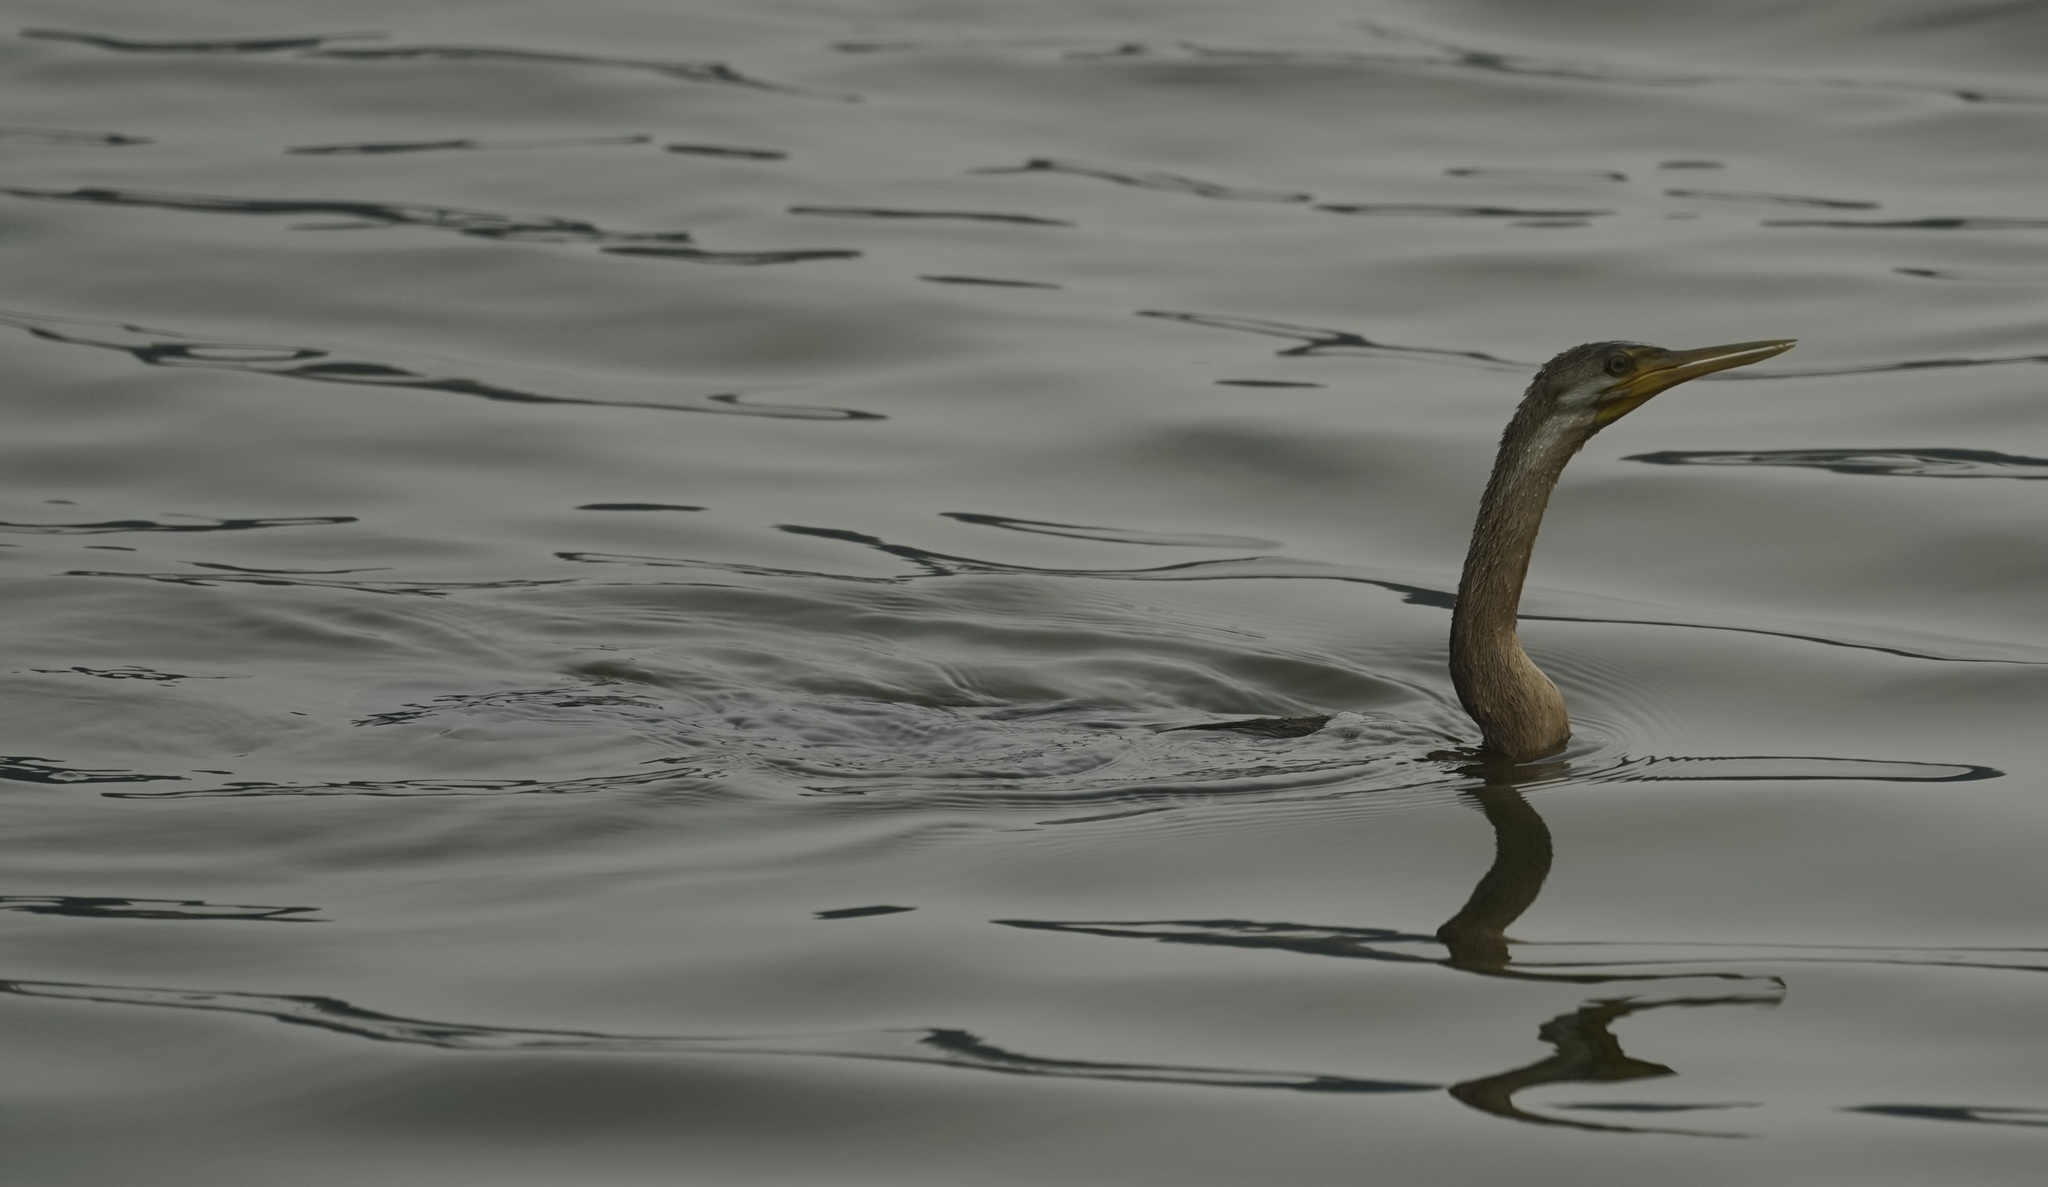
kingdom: Animalia
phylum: Chordata
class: Aves
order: Suliformes
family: Anhingidae
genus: Anhinga
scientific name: Anhinga novaehollandiae
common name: Australasian darter
